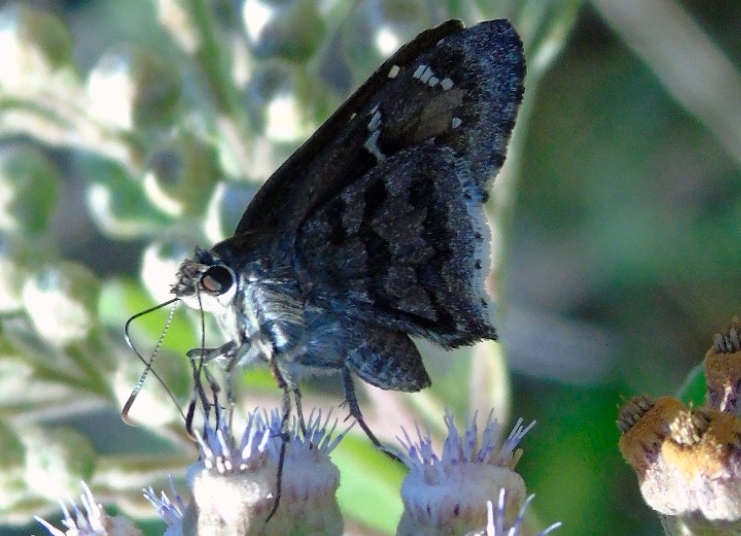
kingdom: Animalia
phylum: Arthropoda
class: Insecta
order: Lepidoptera
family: Hesperiidae
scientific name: Hesperiidae
